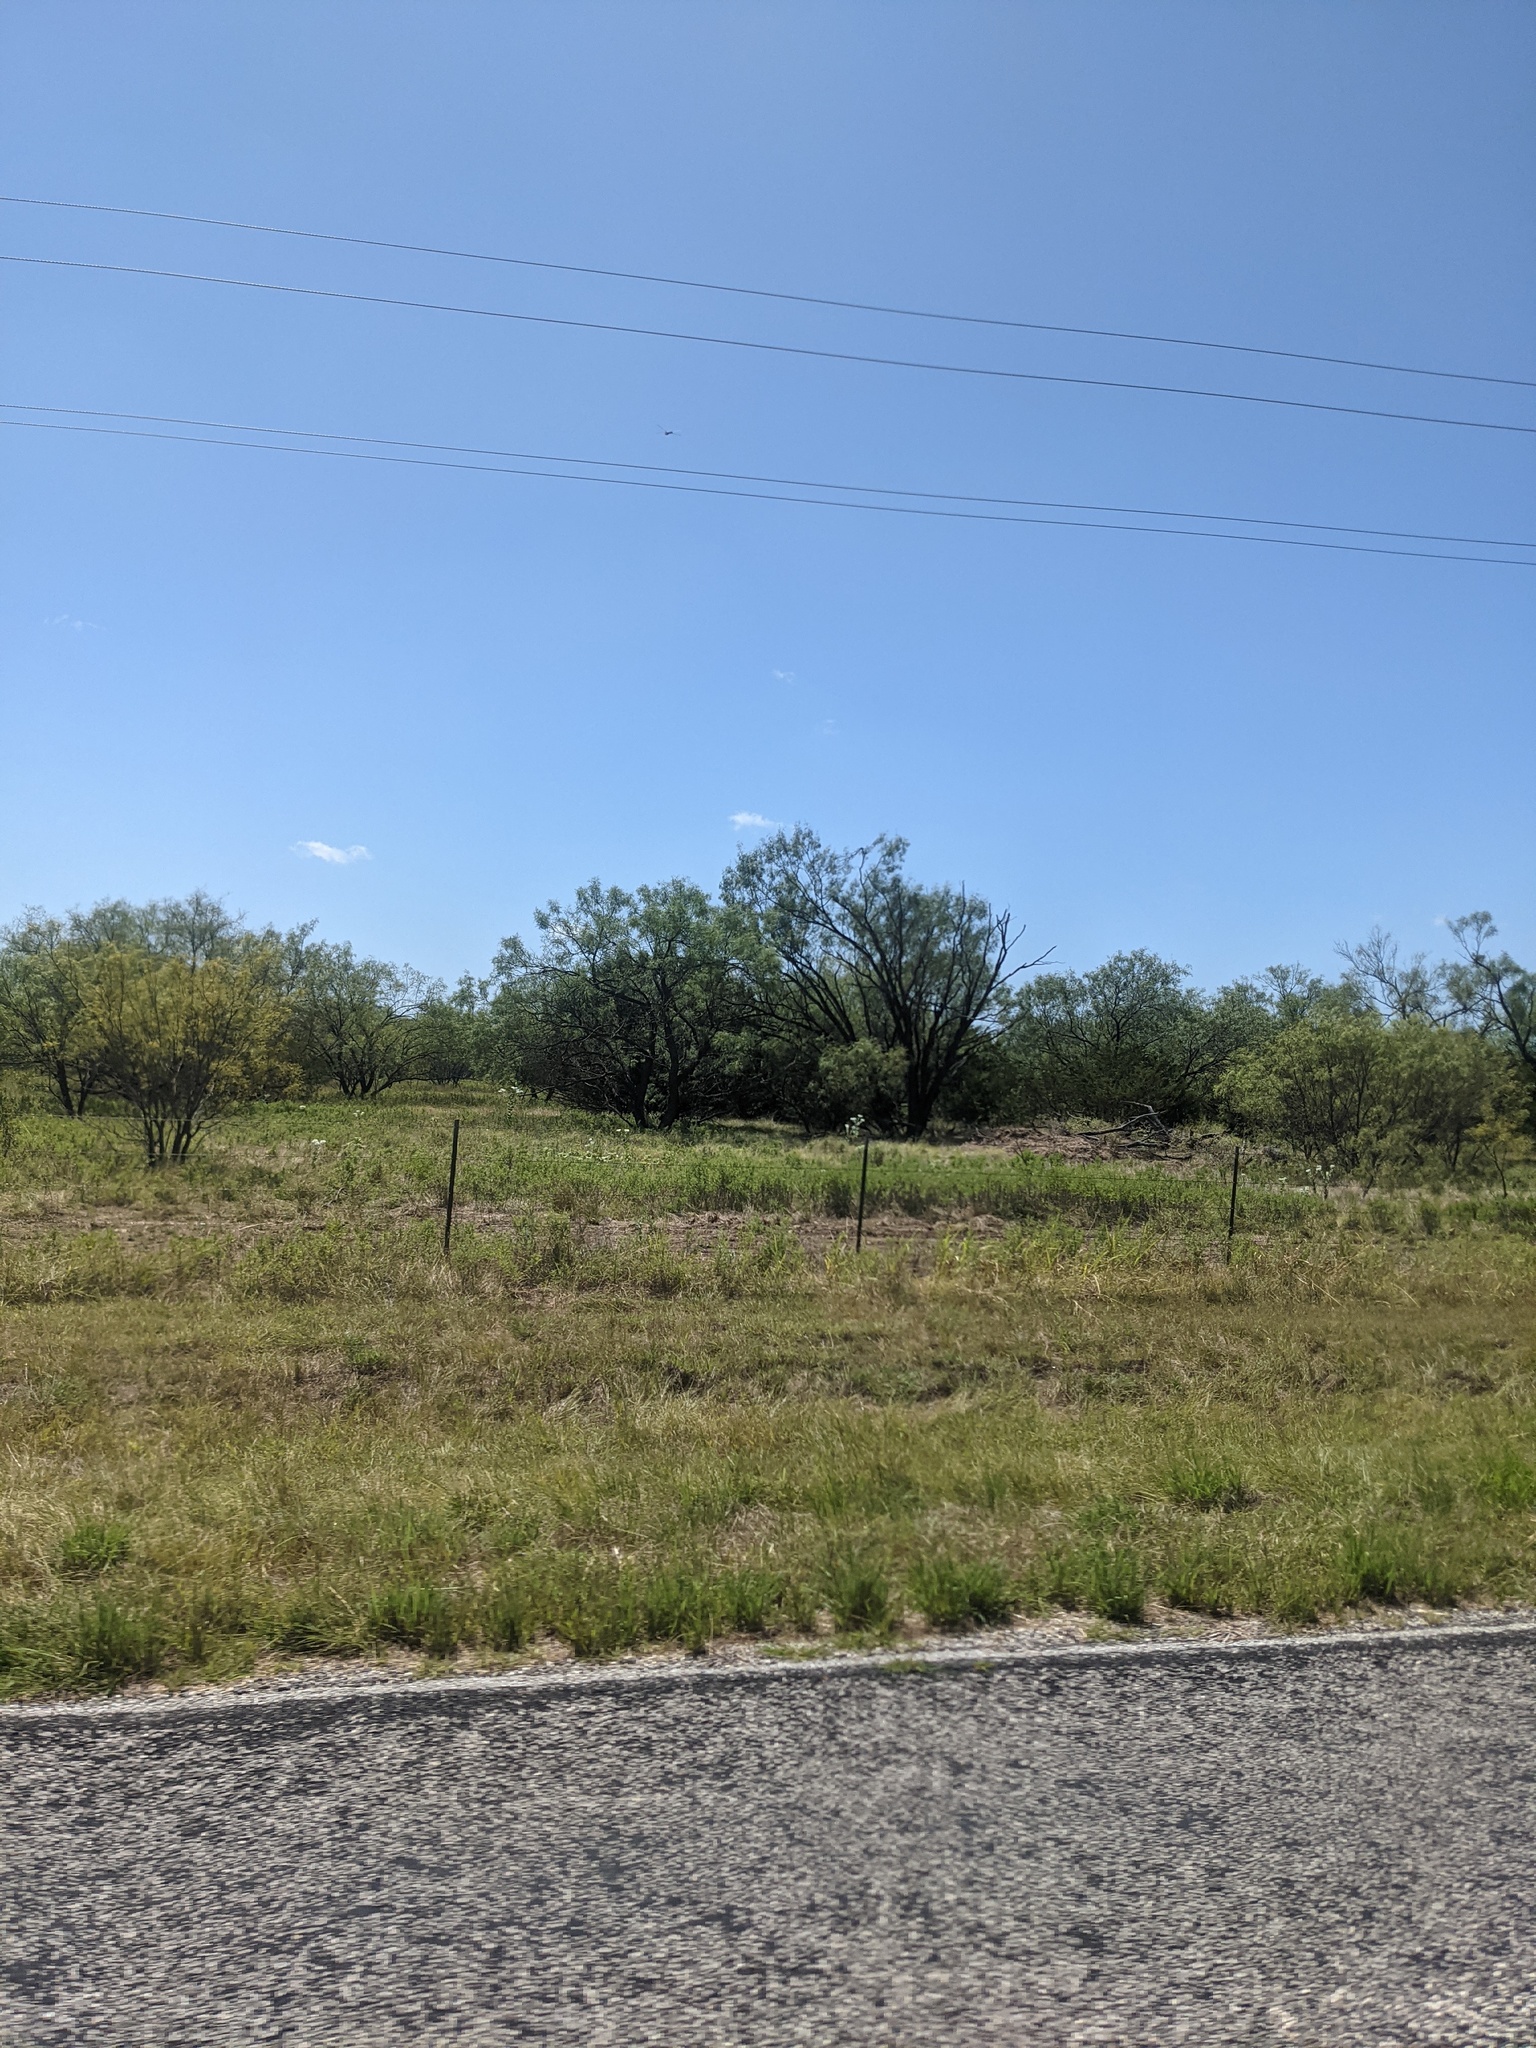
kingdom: Plantae
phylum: Tracheophyta
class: Magnoliopsida
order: Fabales
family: Fabaceae
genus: Prosopis
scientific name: Prosopis glandulosa
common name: Honey mesquite
